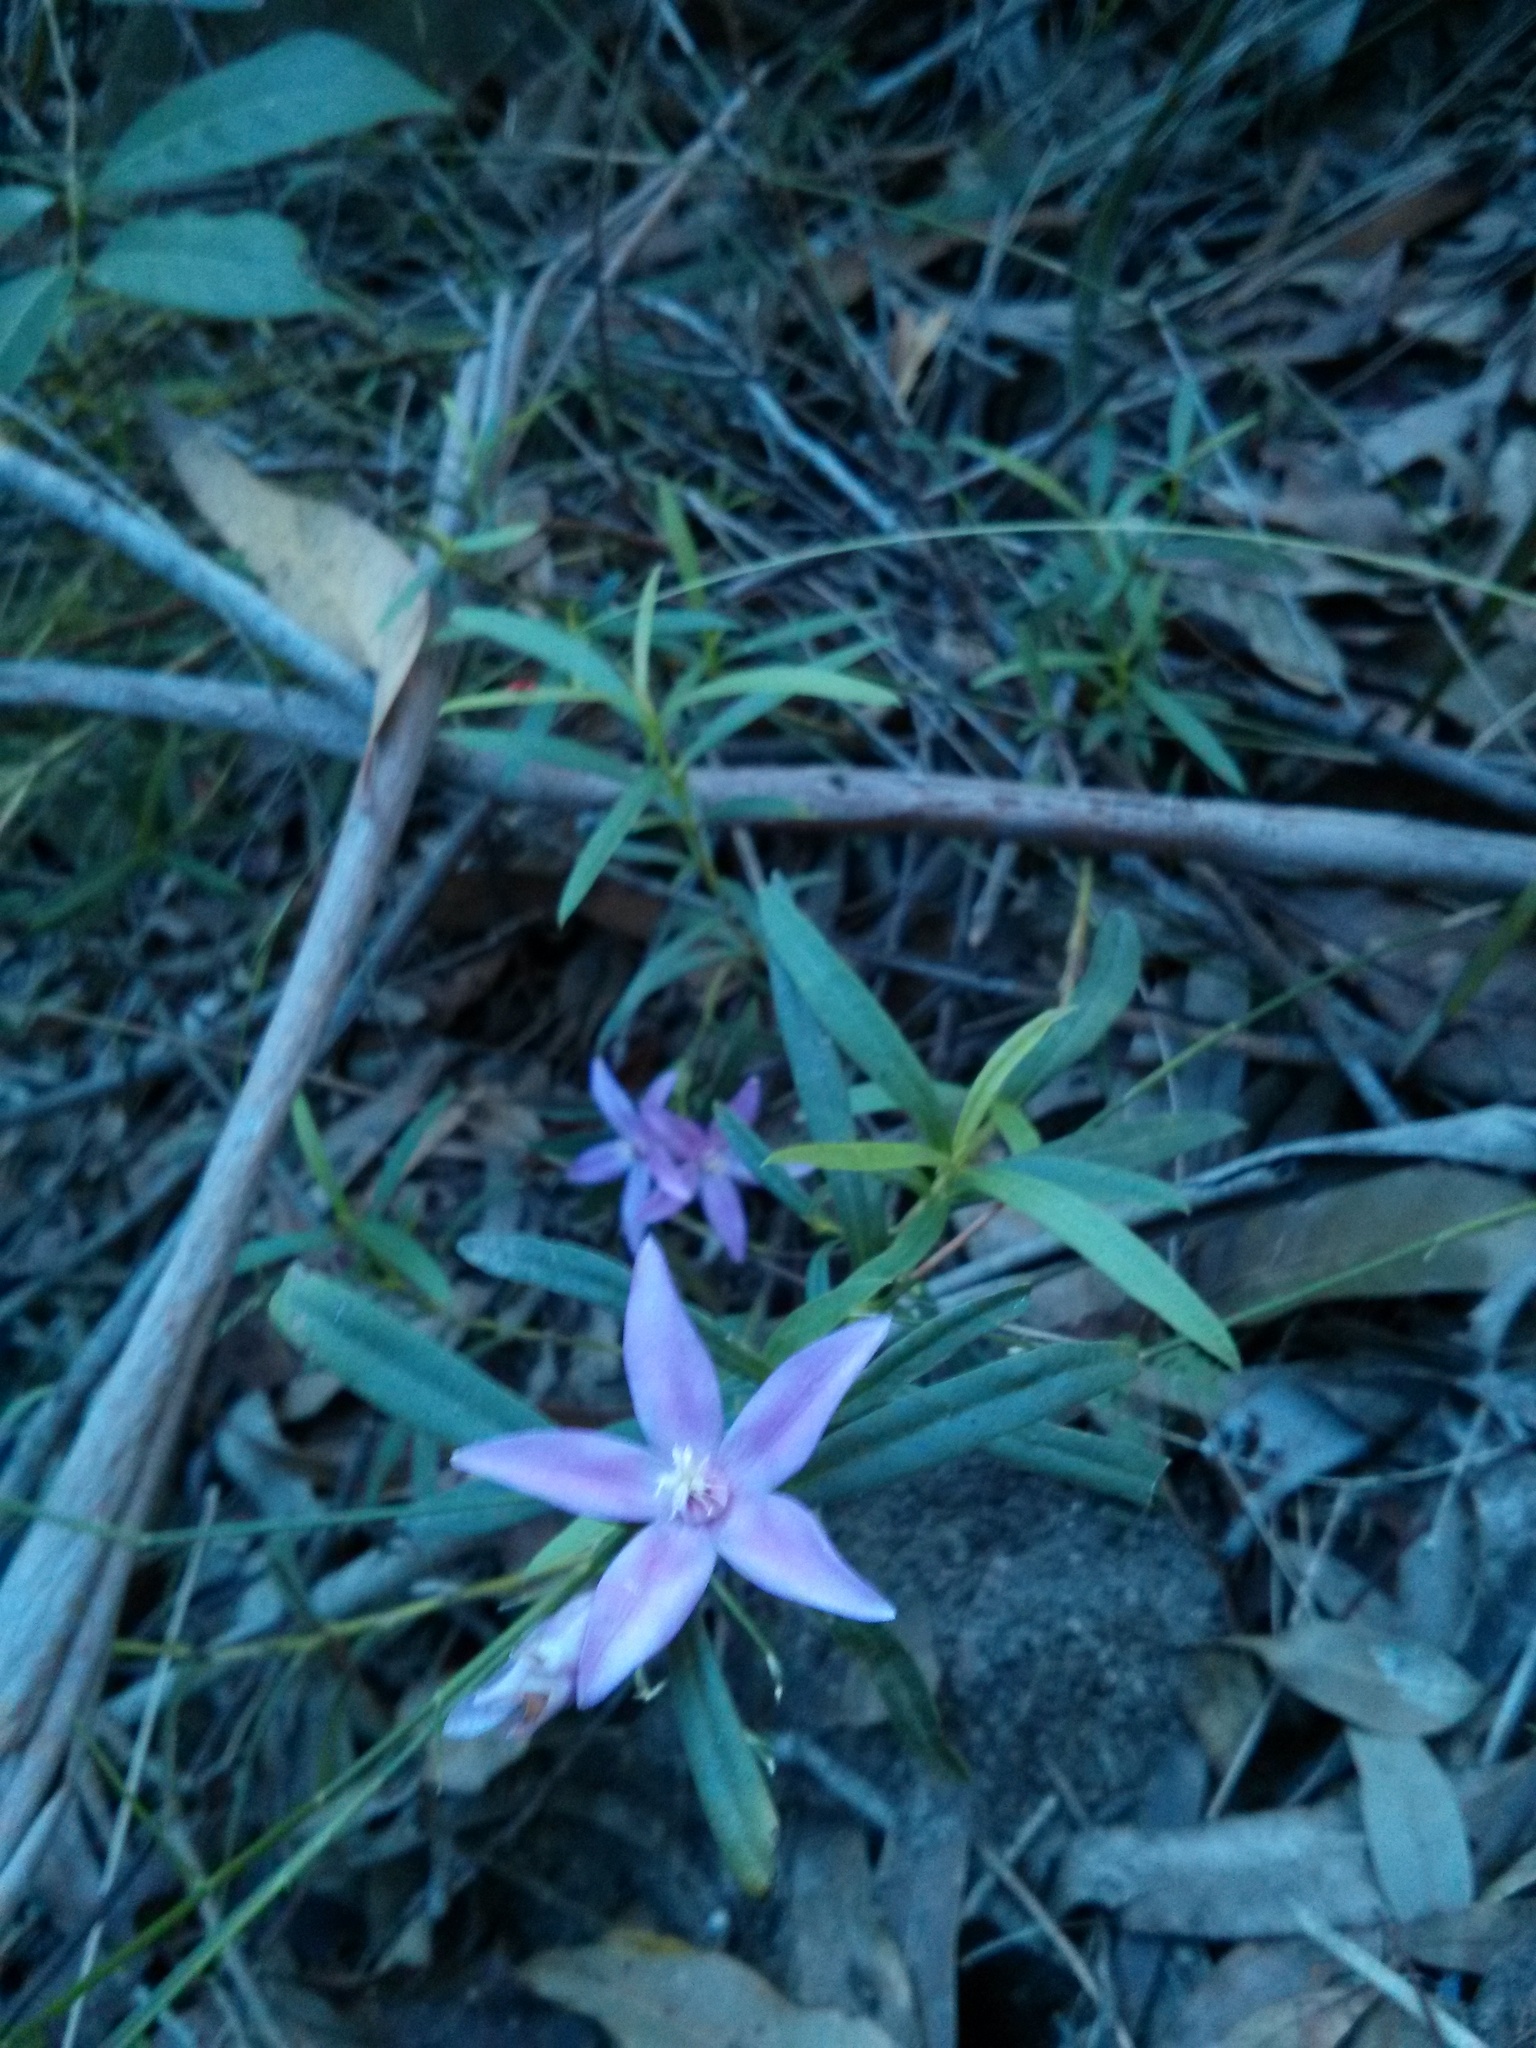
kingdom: Plantae
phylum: Tracheophyta
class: Magnoliopsida
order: Sapindales
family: Rutaceae
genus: Crowea
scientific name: Crowea saligna
